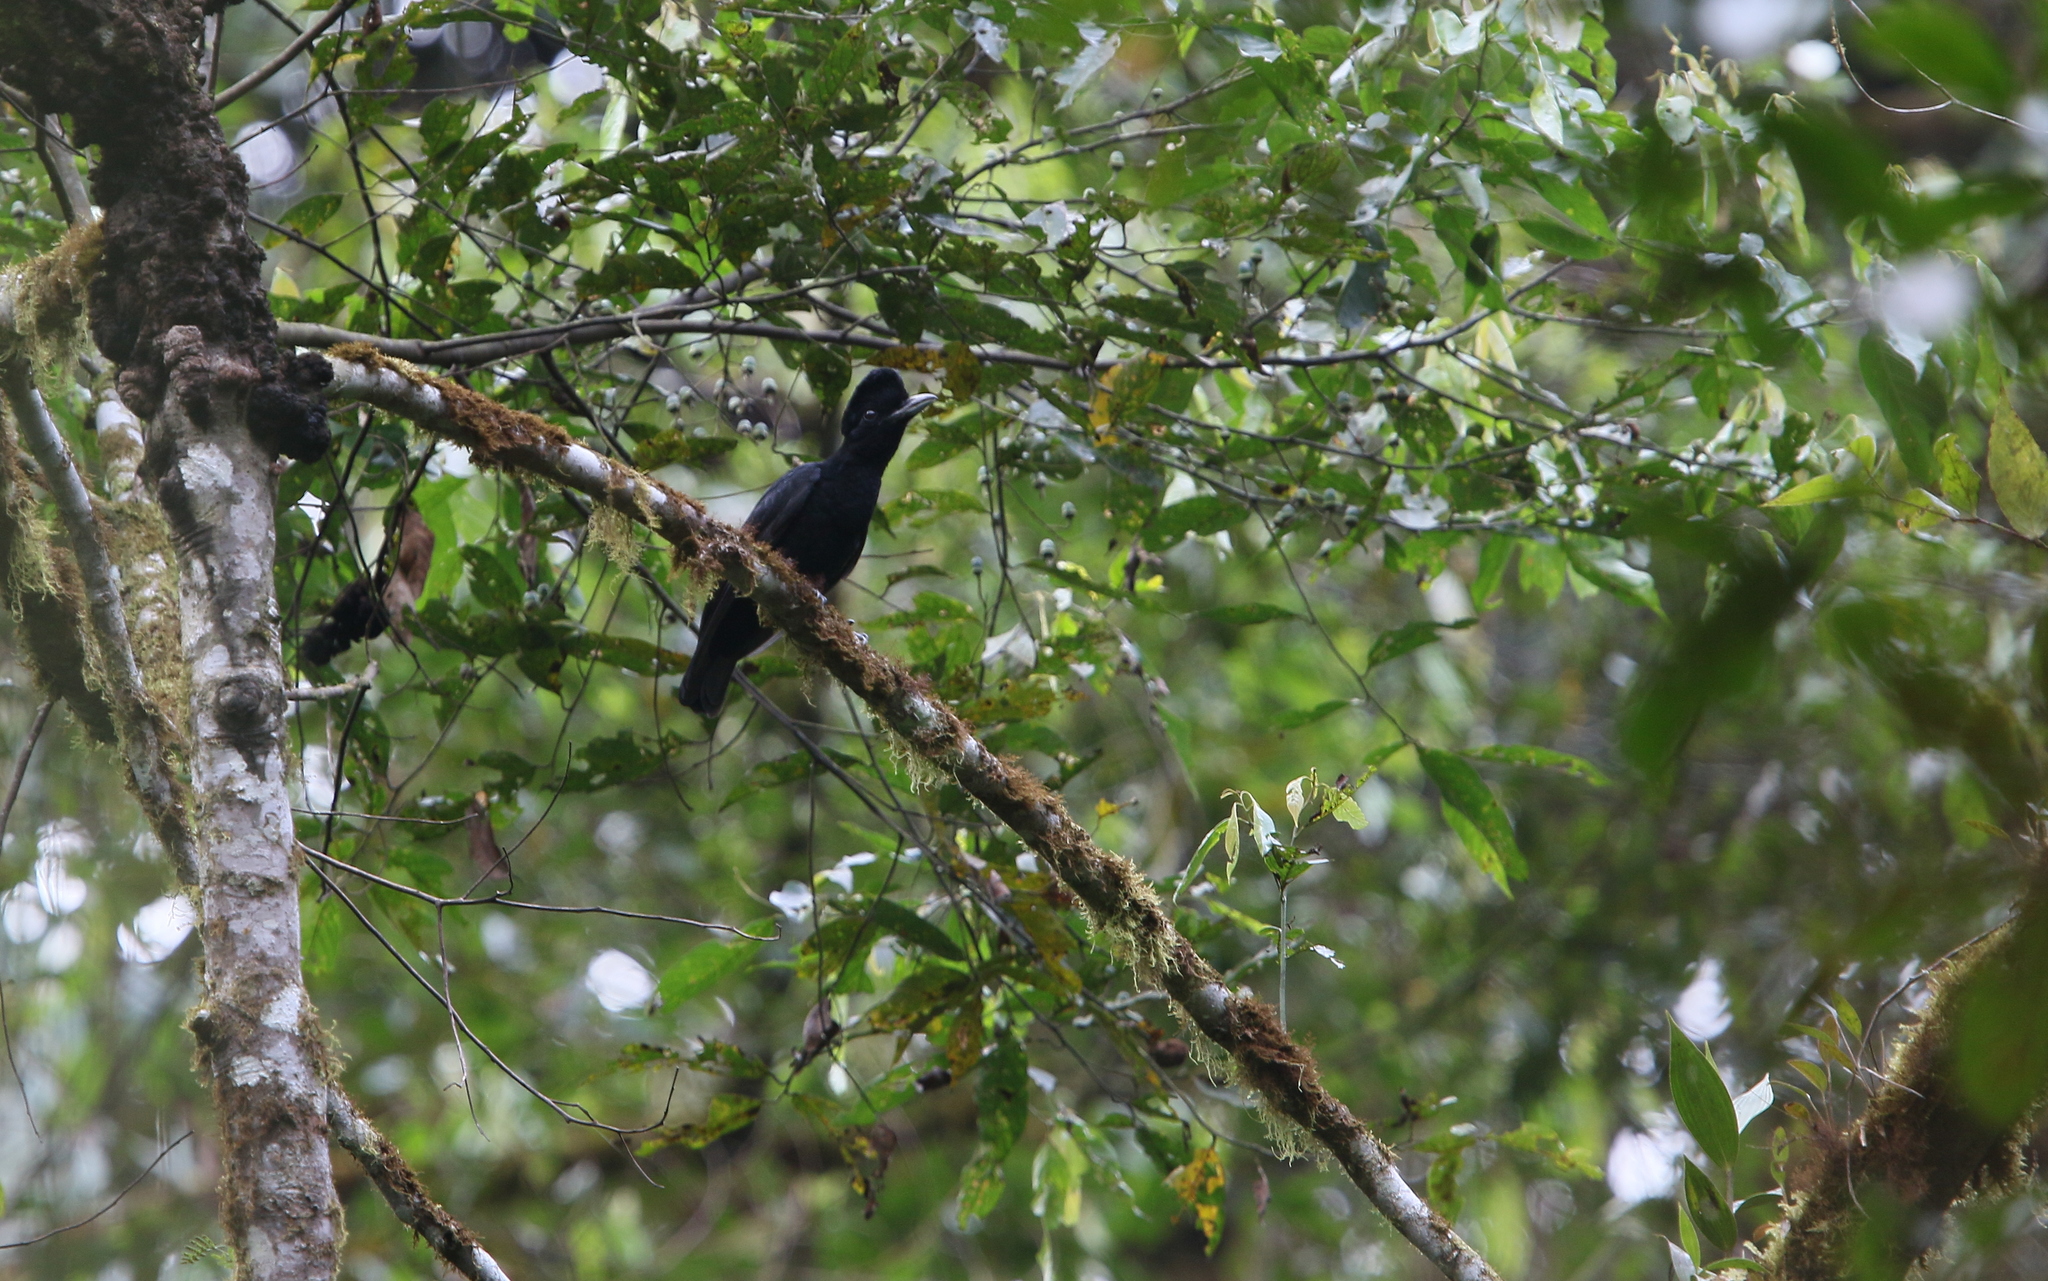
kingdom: Animalia
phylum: Chordata
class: Aves
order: Passeriformes
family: Cotingidae
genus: Cephalopterus
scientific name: Cephalopterus penduliger
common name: Long-wattled umbrellabird
